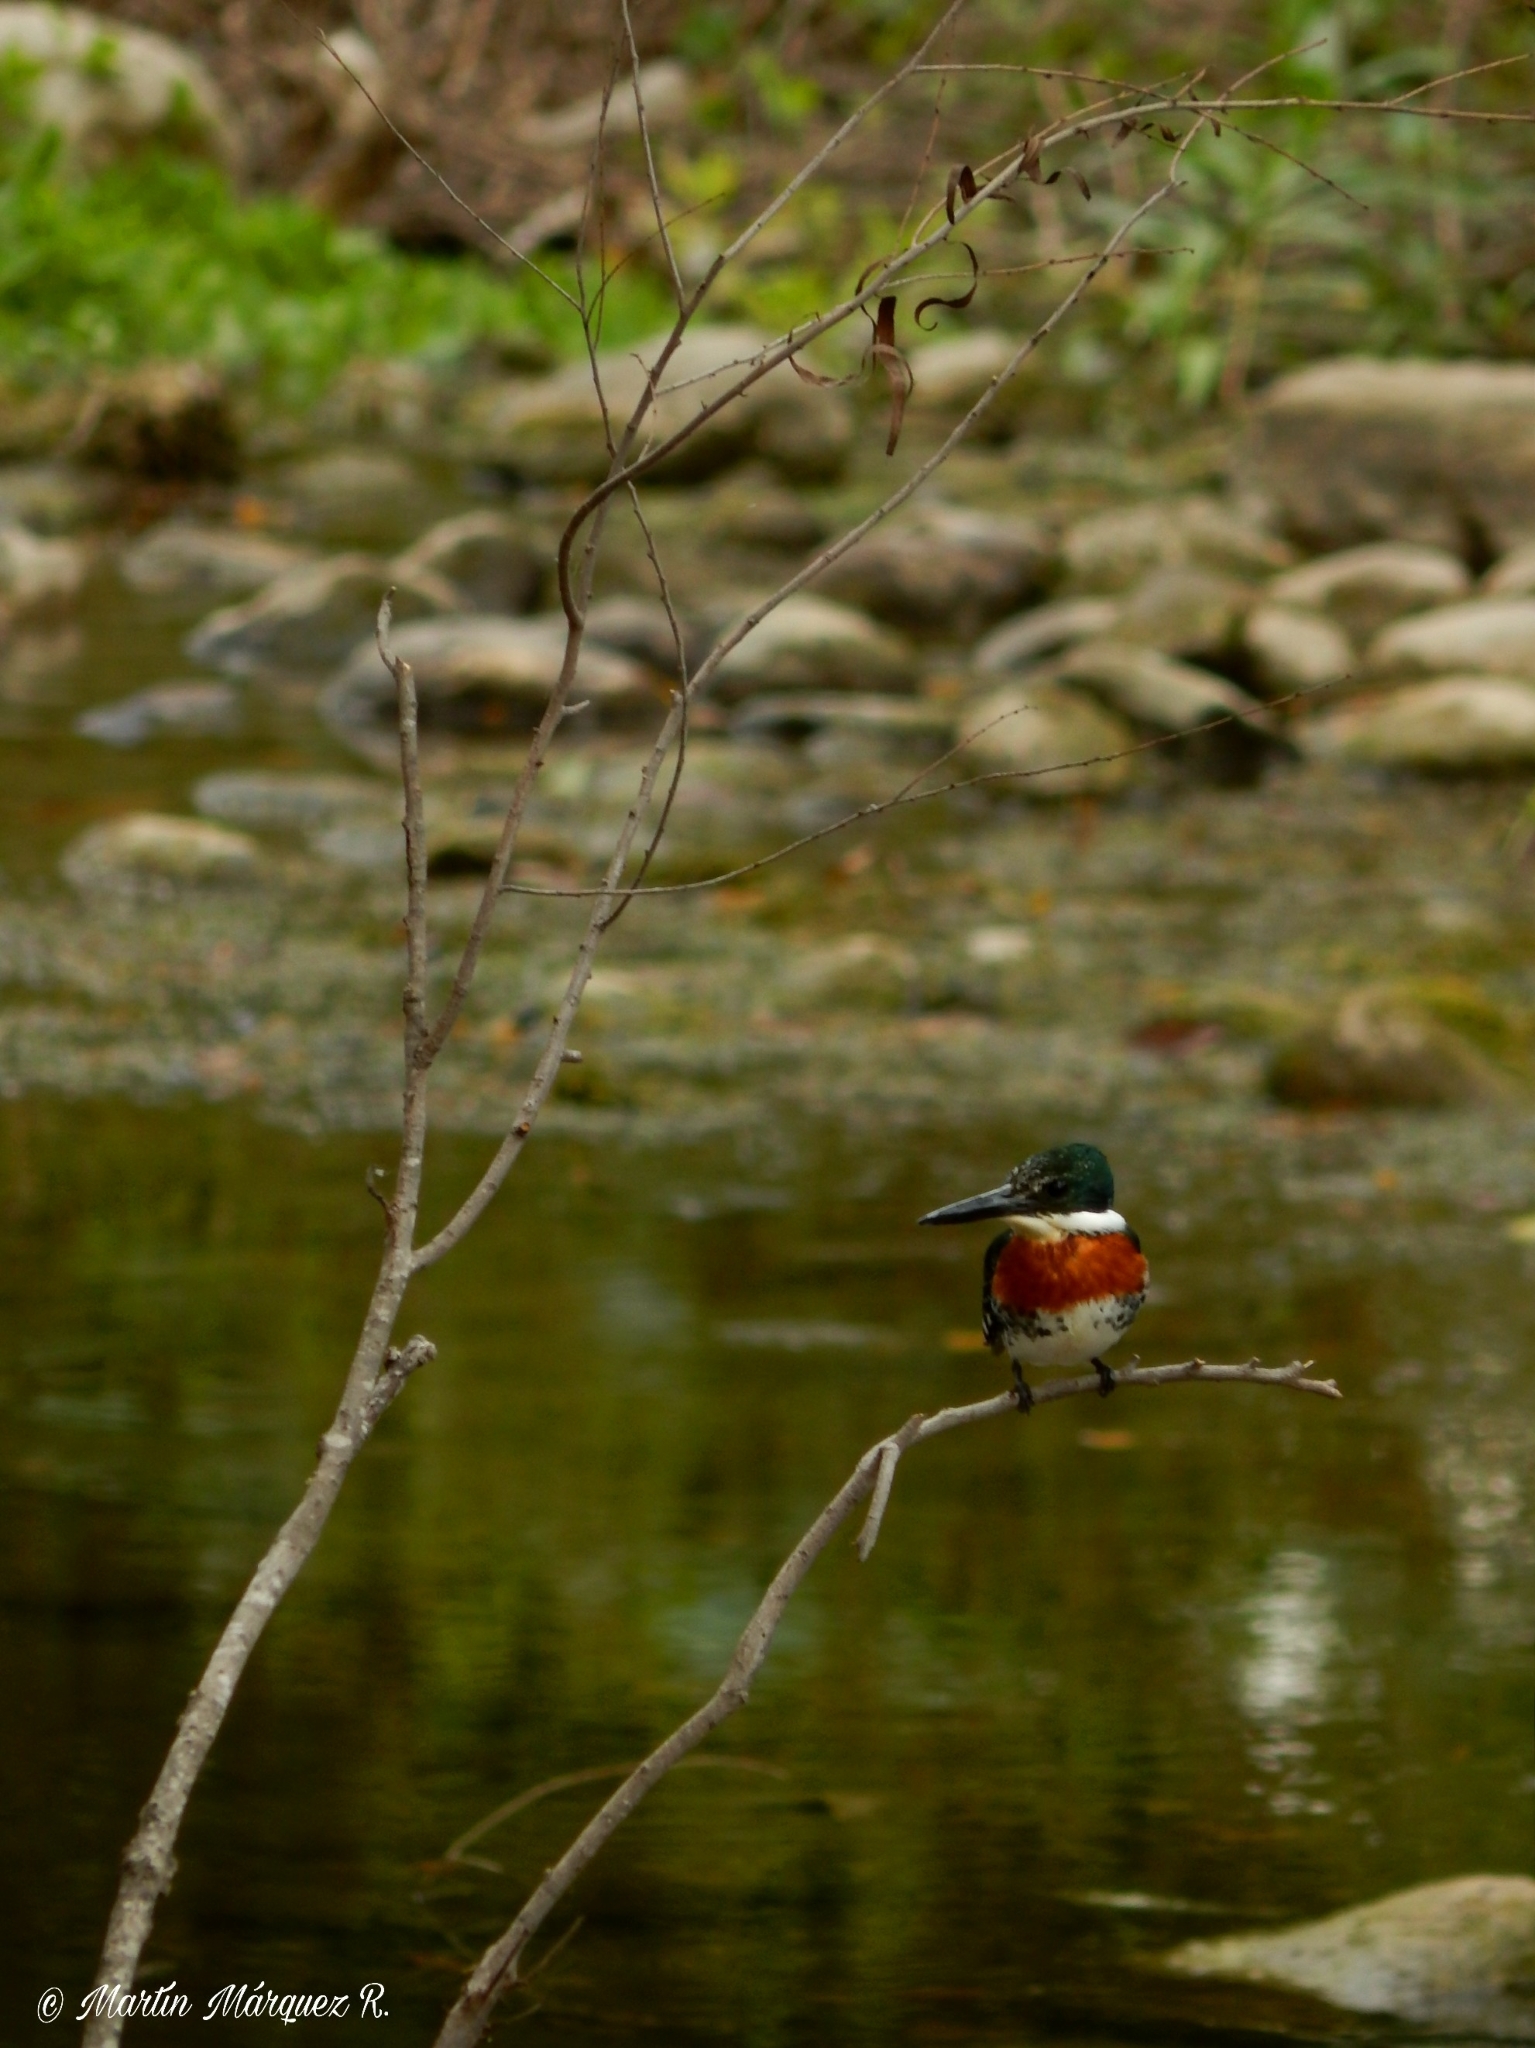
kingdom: Animalia
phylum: Chordata
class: Aves
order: Coraciiformes
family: Alcedinidae
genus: Chloroceryle
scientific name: Chloroceryle americana
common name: Green kingfisher
